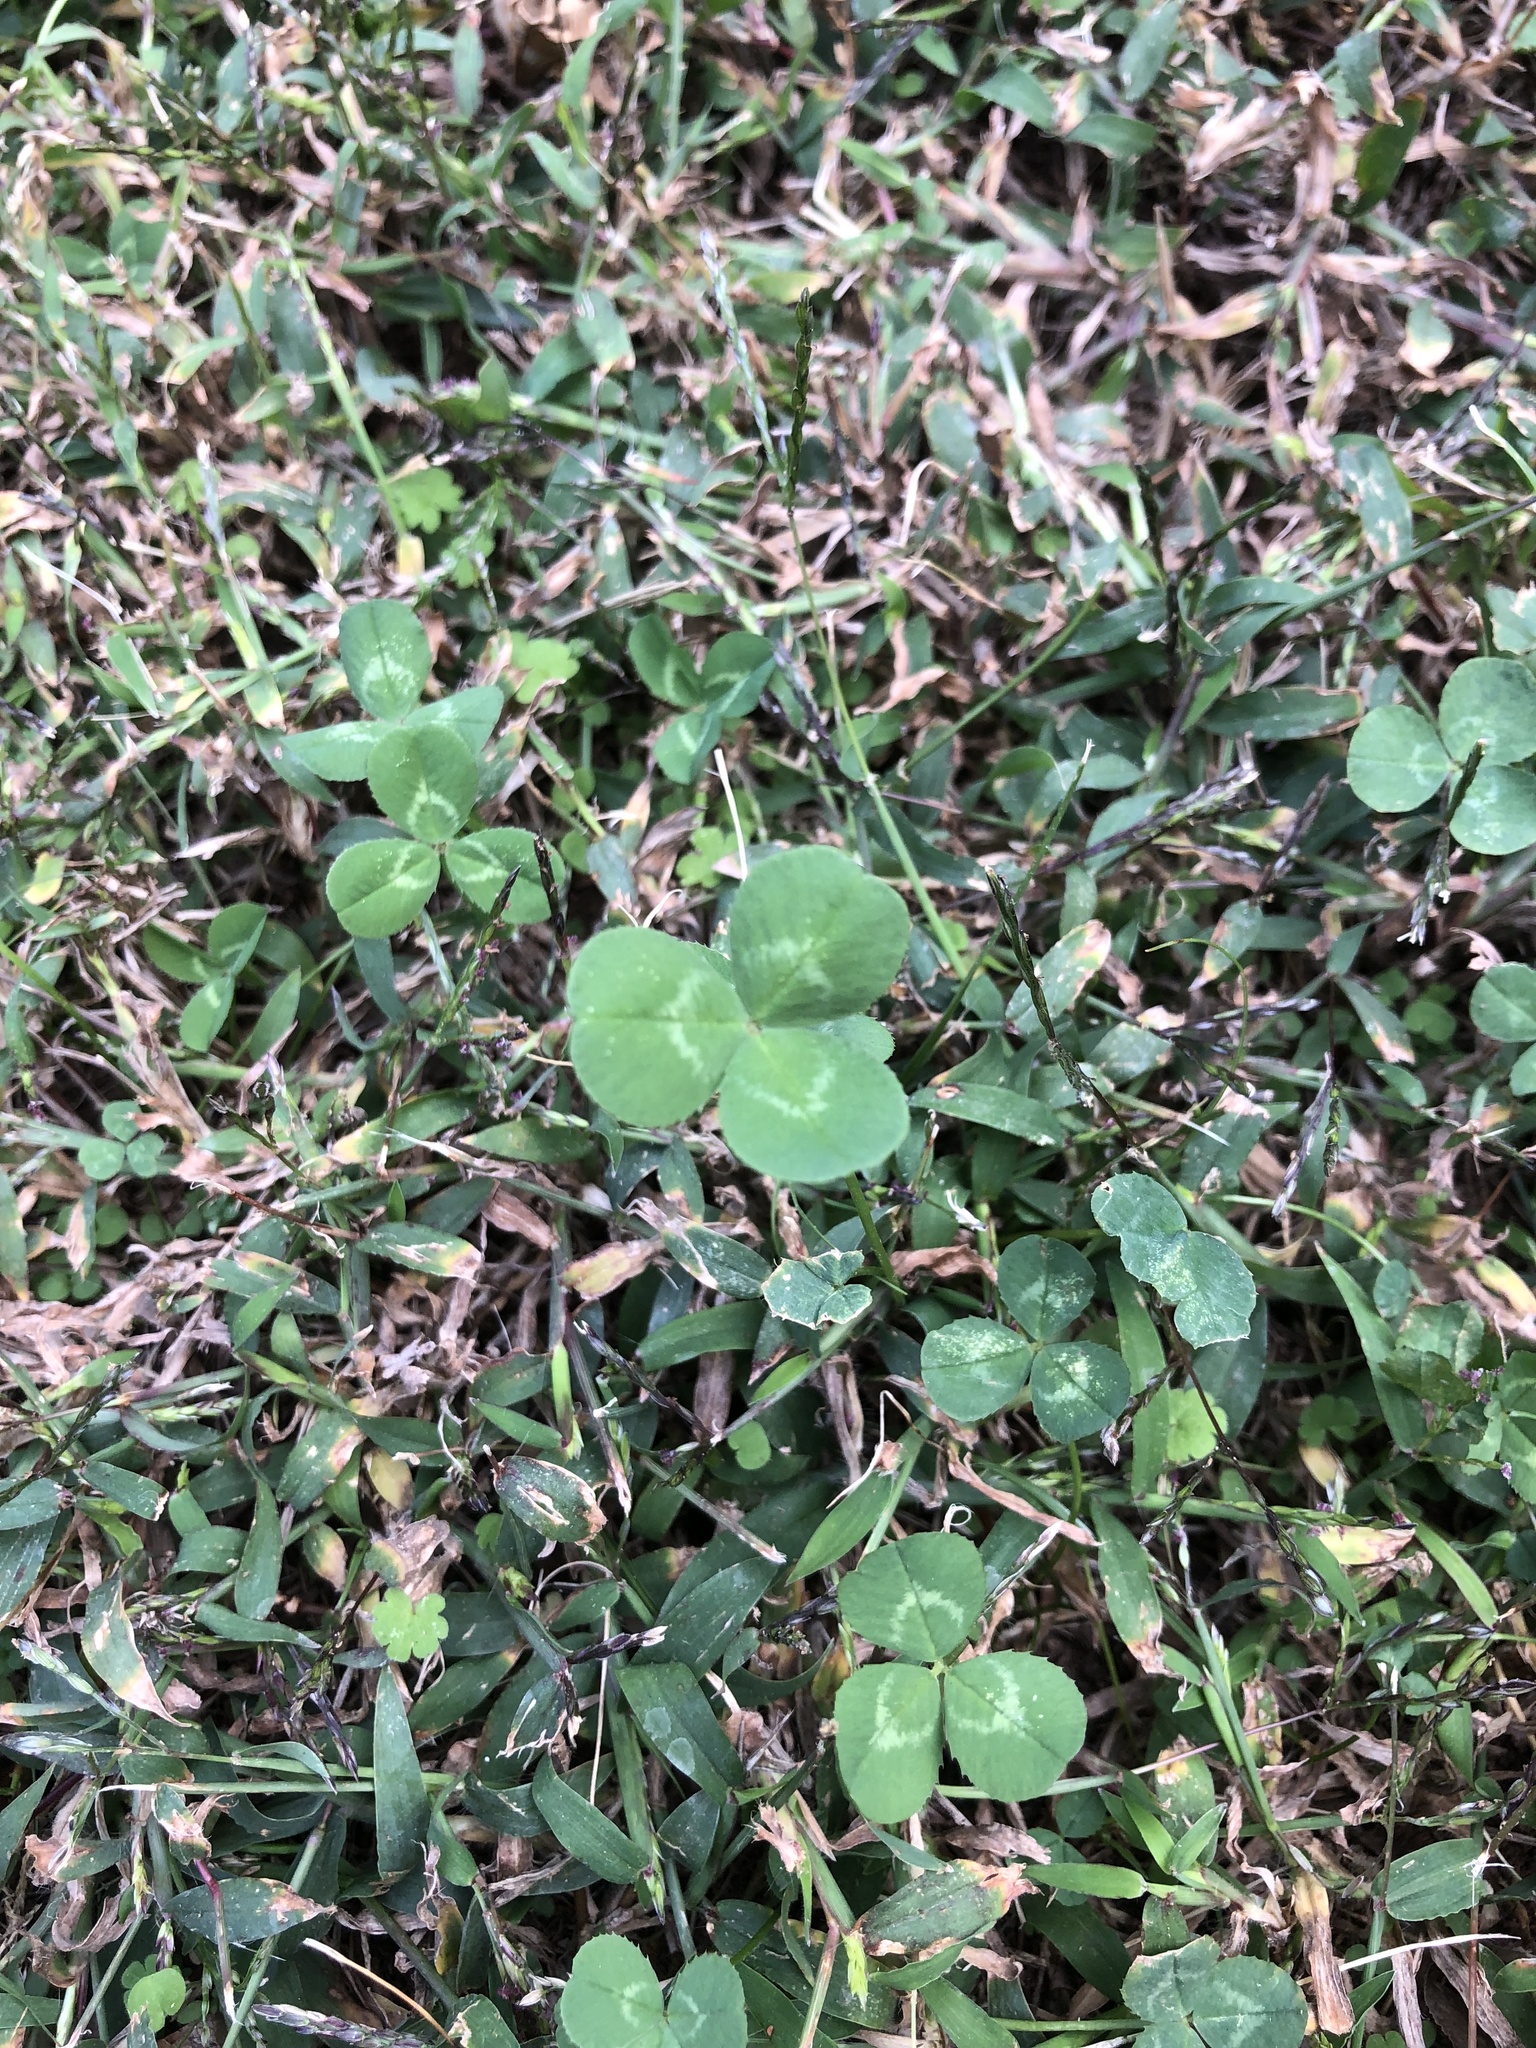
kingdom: Plantae
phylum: Tracheophyta
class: Magnoliopsida
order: Fabales
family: Fabaceae
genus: Trifolium
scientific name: Trifolium repens
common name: White clover
